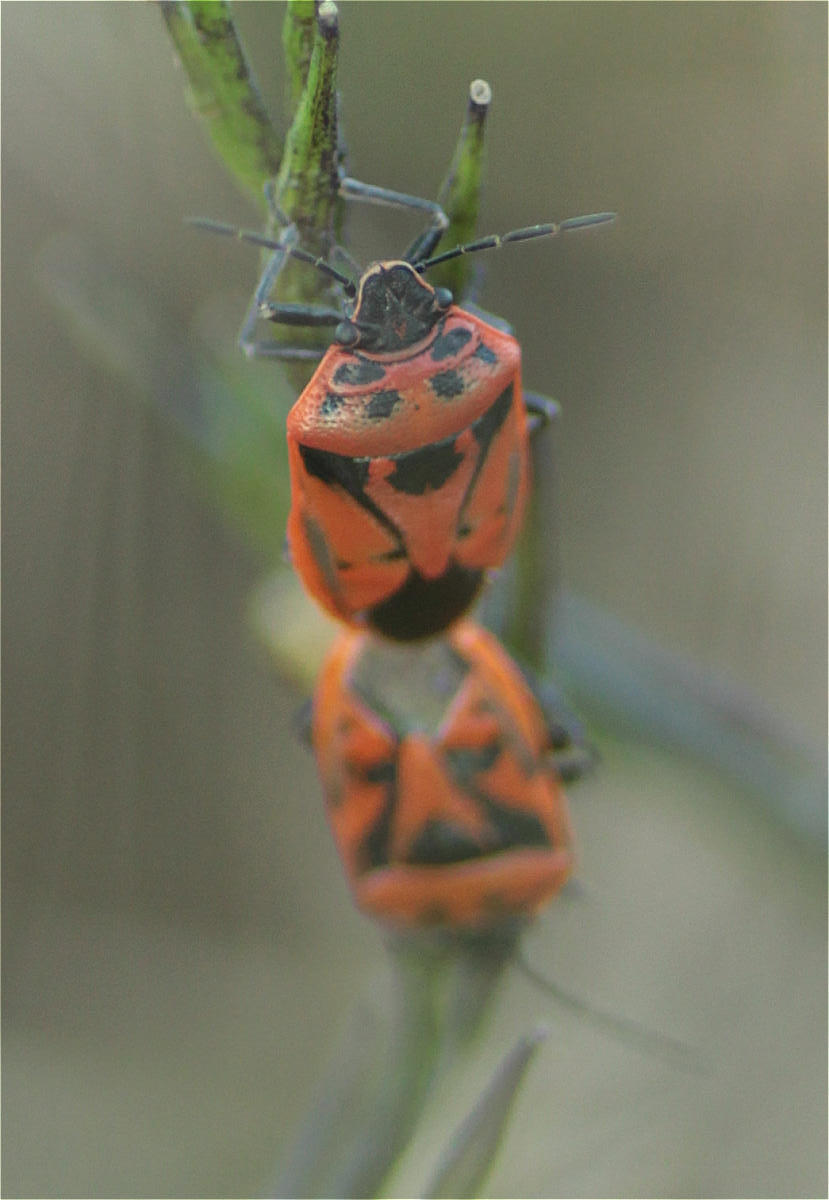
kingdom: Animalia
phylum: Arthropoda
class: Insecta
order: Hemiptera
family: Pentatomidae
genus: Eurydema
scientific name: Eurydema ornata
